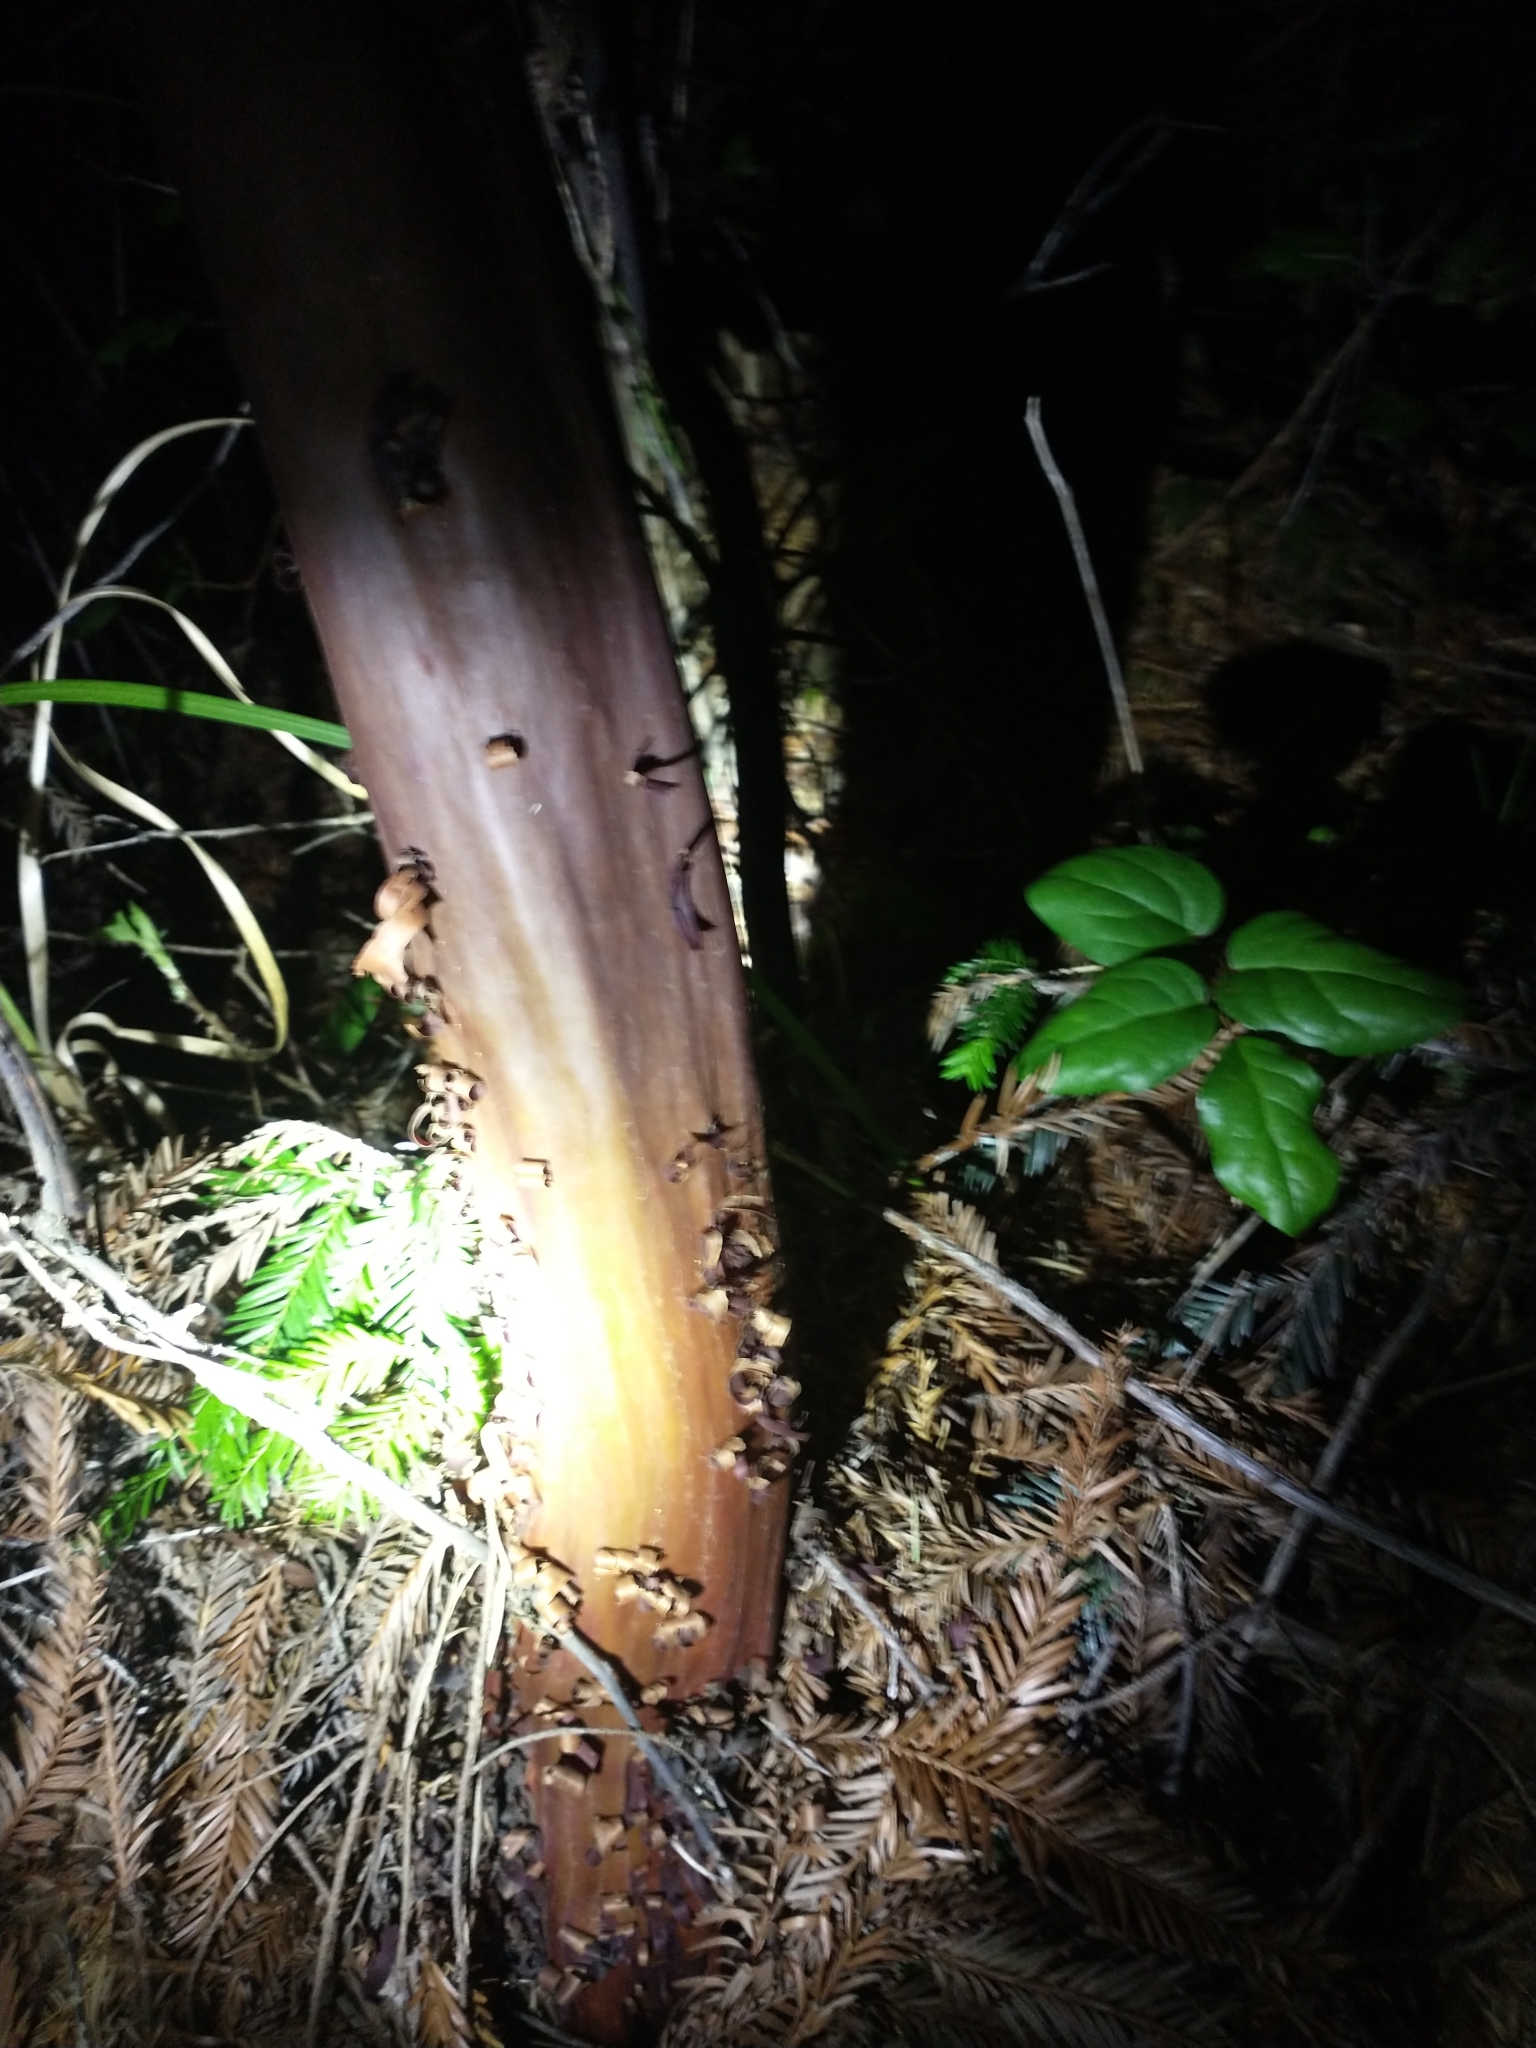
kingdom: Plantae
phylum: Tracheophyta
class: Magnoliopsida
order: Ericales
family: Ericaceae
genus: Arctostaphylos
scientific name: Arctostaphylos columbiana
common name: Bristly bearberry
